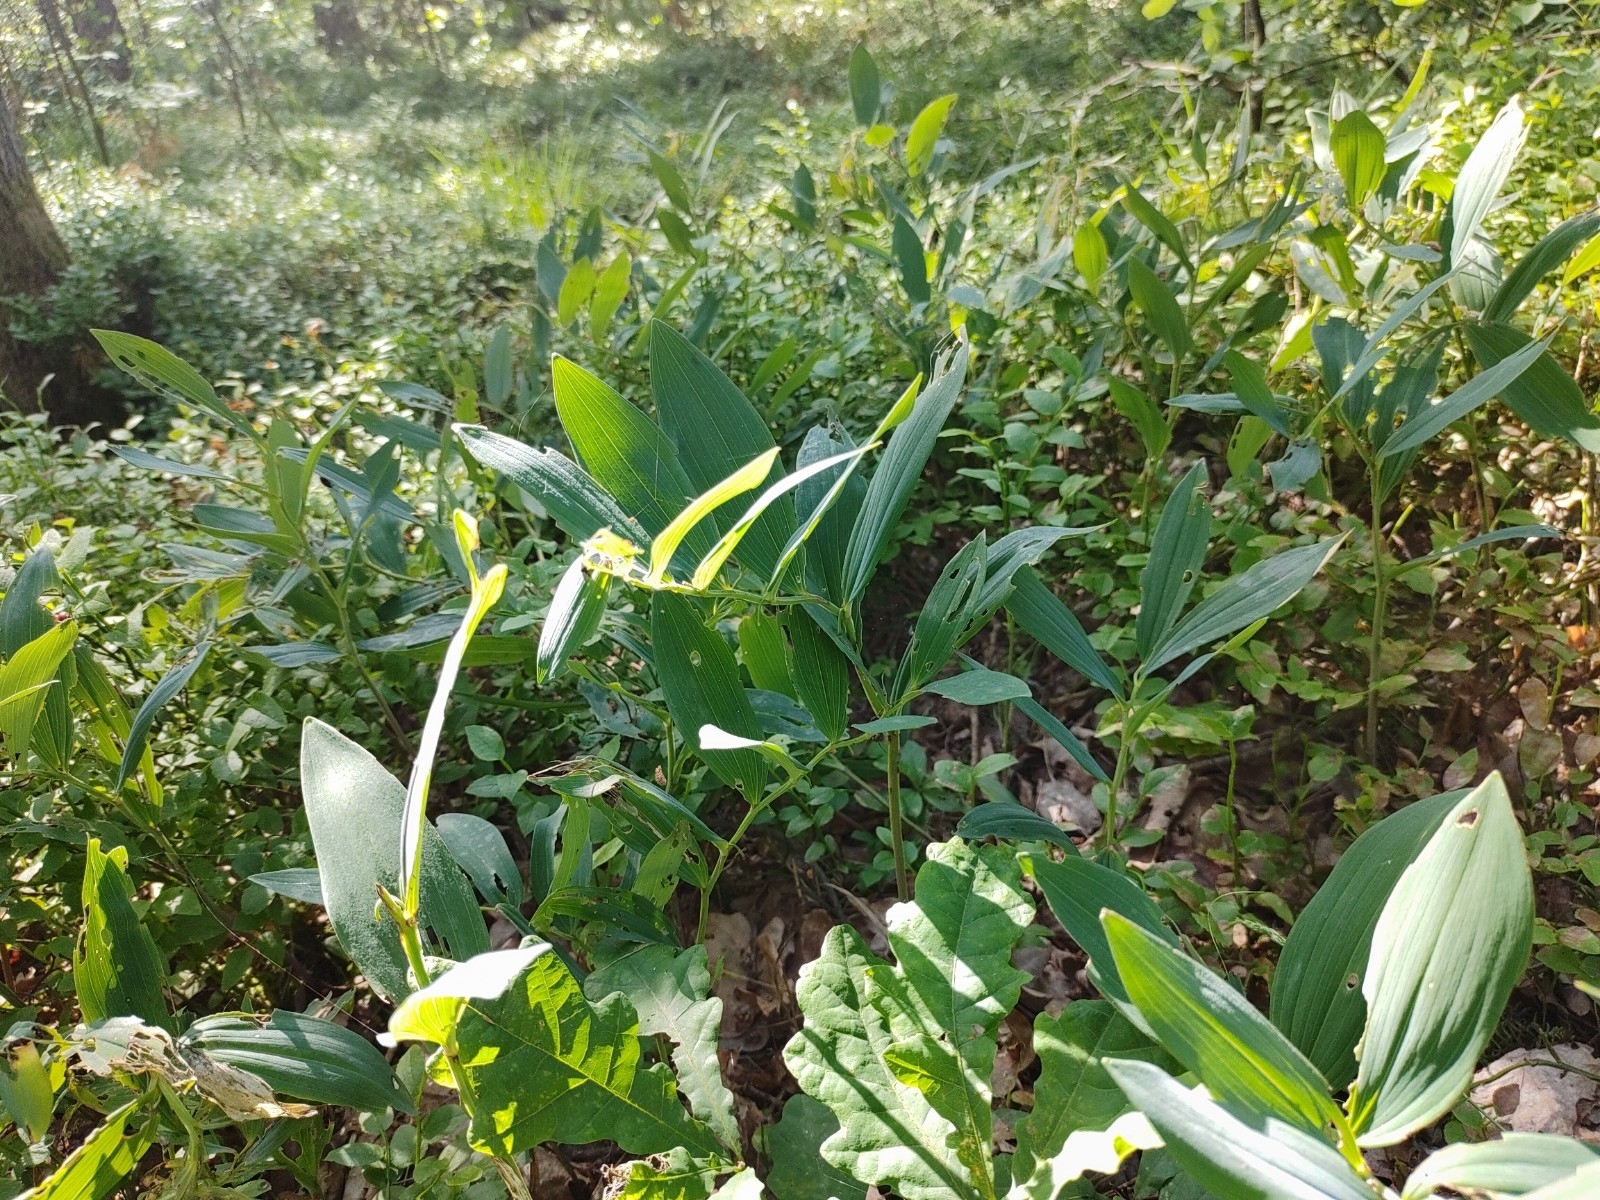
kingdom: Plantae
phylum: Tracheophyta
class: Liliopsida
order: Asparagales
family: Asparagaceae
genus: Polygonatum
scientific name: Polygonatum odoratum
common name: Angular solomon's-seal
